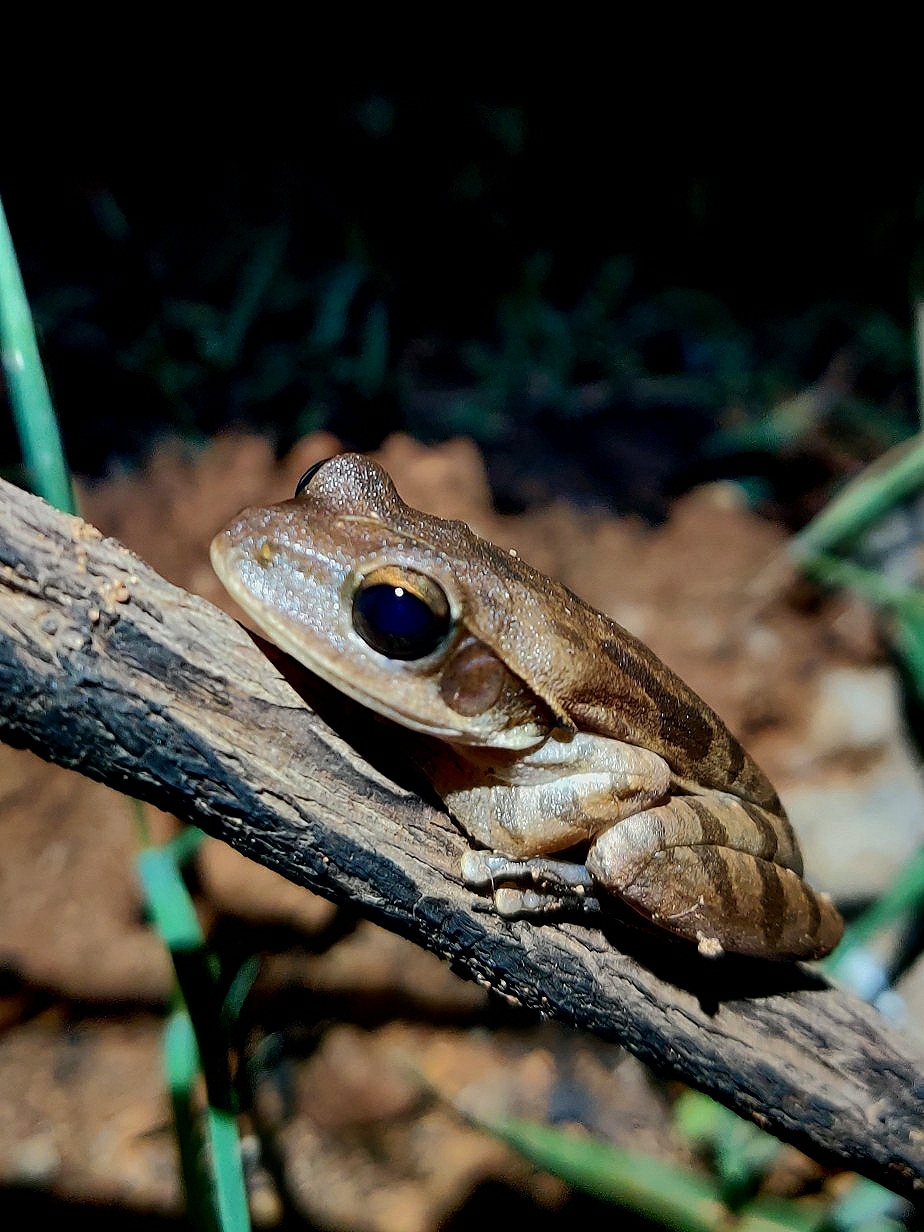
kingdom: Animalia
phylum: Chordata
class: Amphibia
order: Anura
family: Rhacophoridae
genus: Polypedates
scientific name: Polypedates maculatus
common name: Himalayan tree frog
